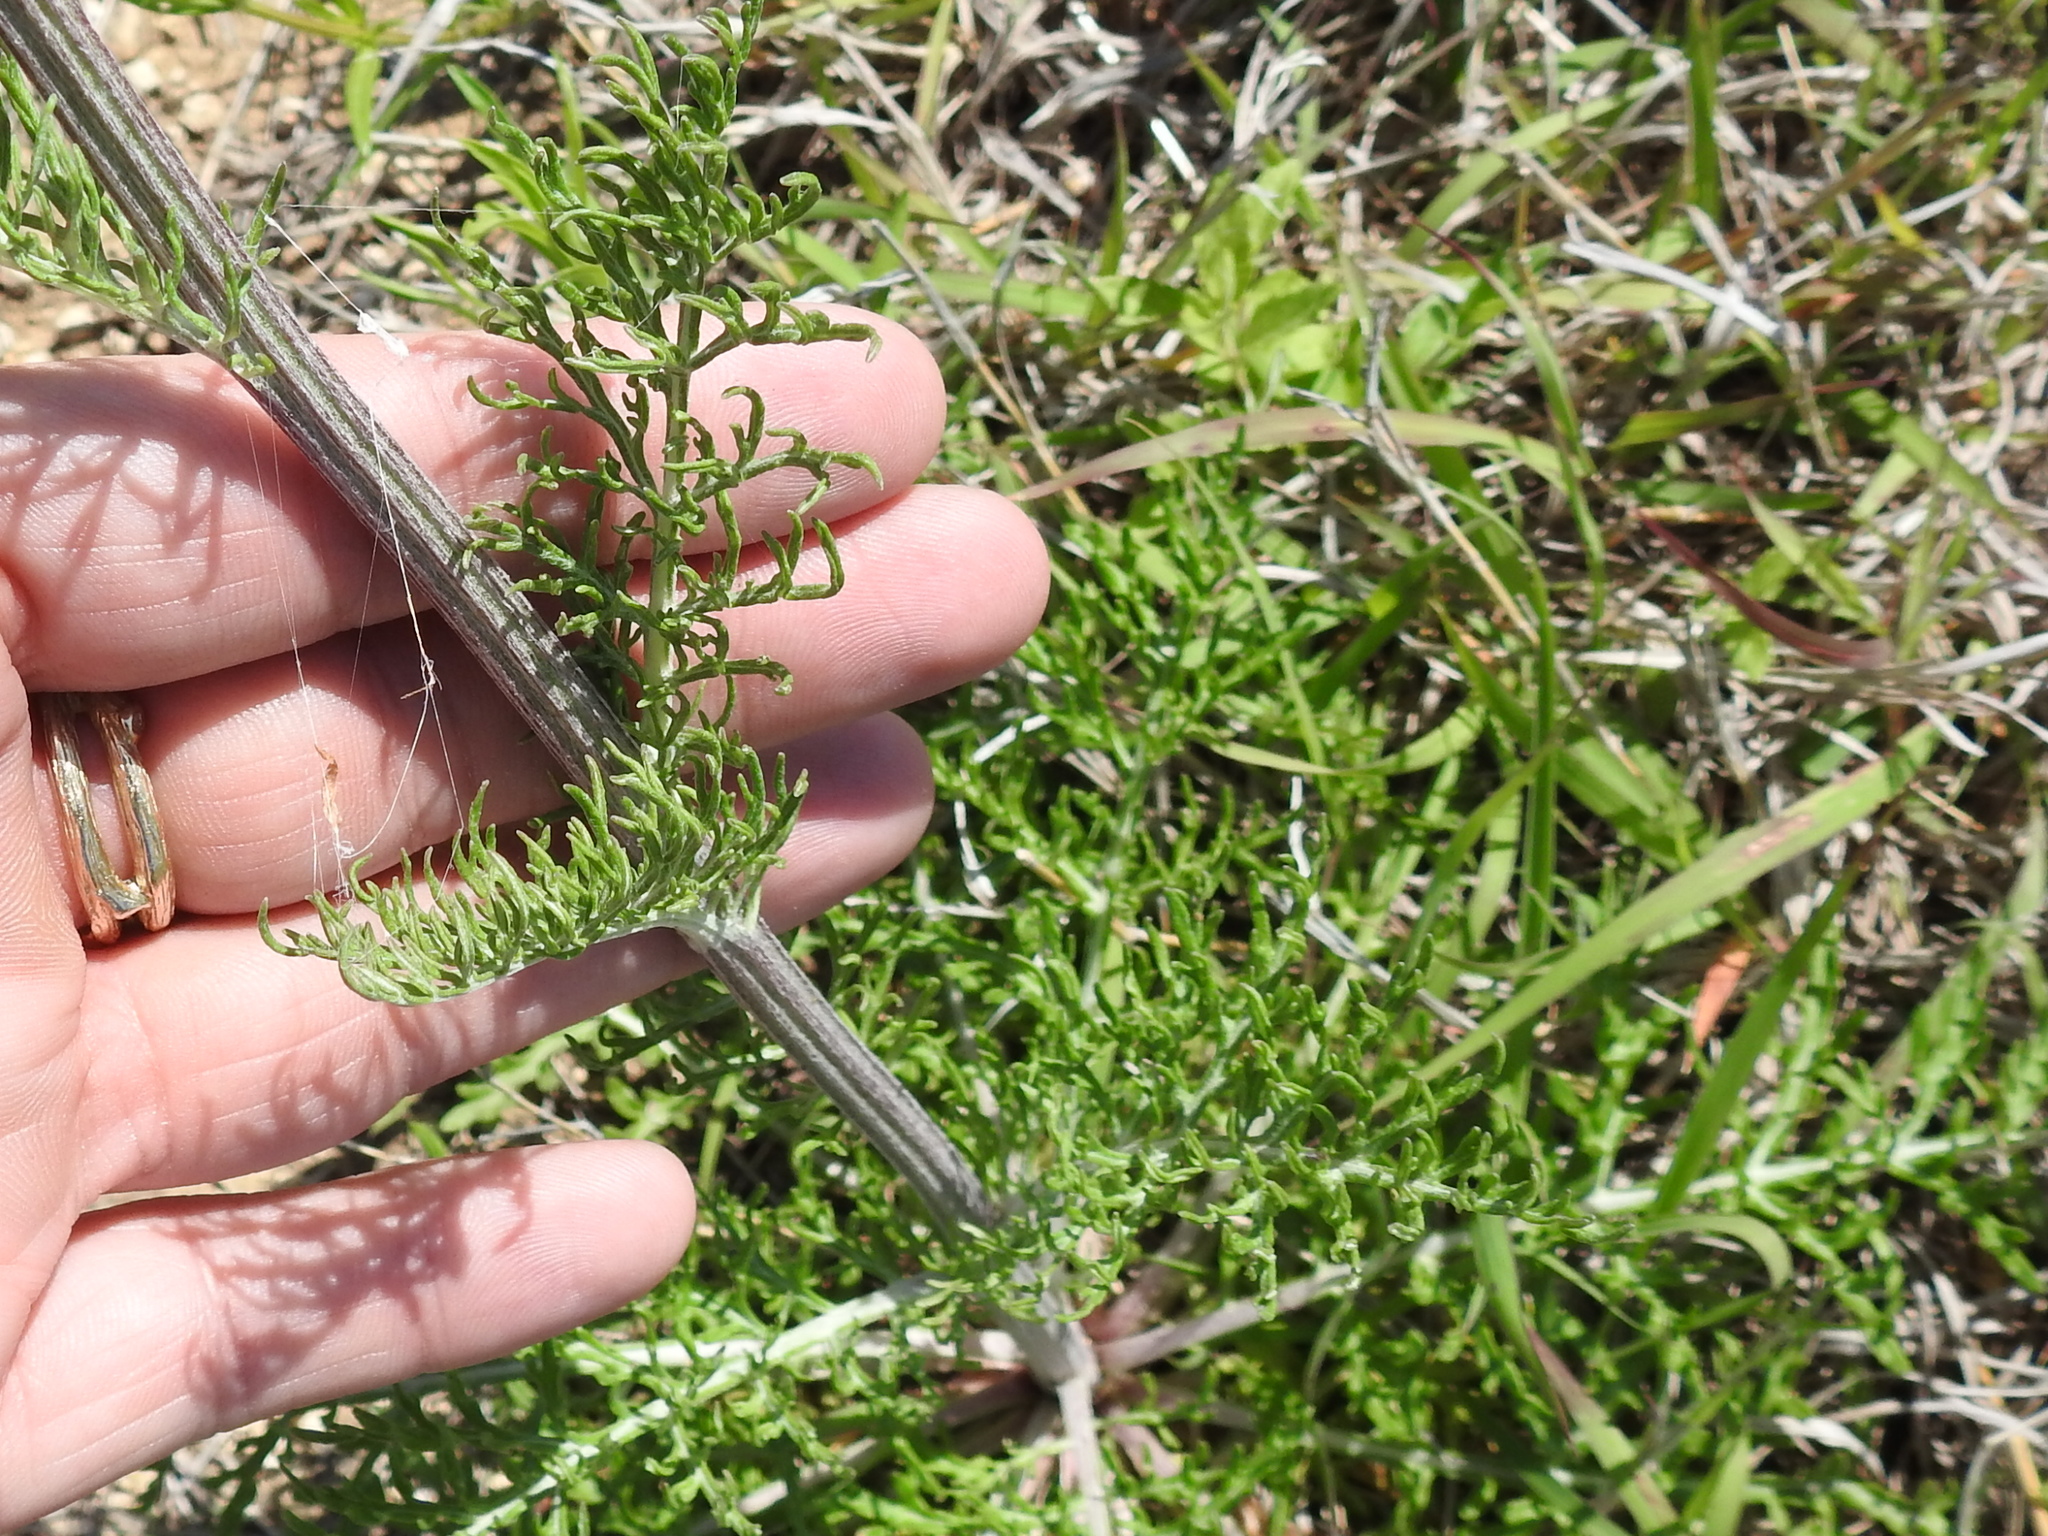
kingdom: Plantae
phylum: Tracheophyta
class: Magnoliopsida
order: Asterales
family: Asteraceae
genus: Hymenopappus
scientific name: Hymenopappus scabiosaeus
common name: Carolina woollywhite
